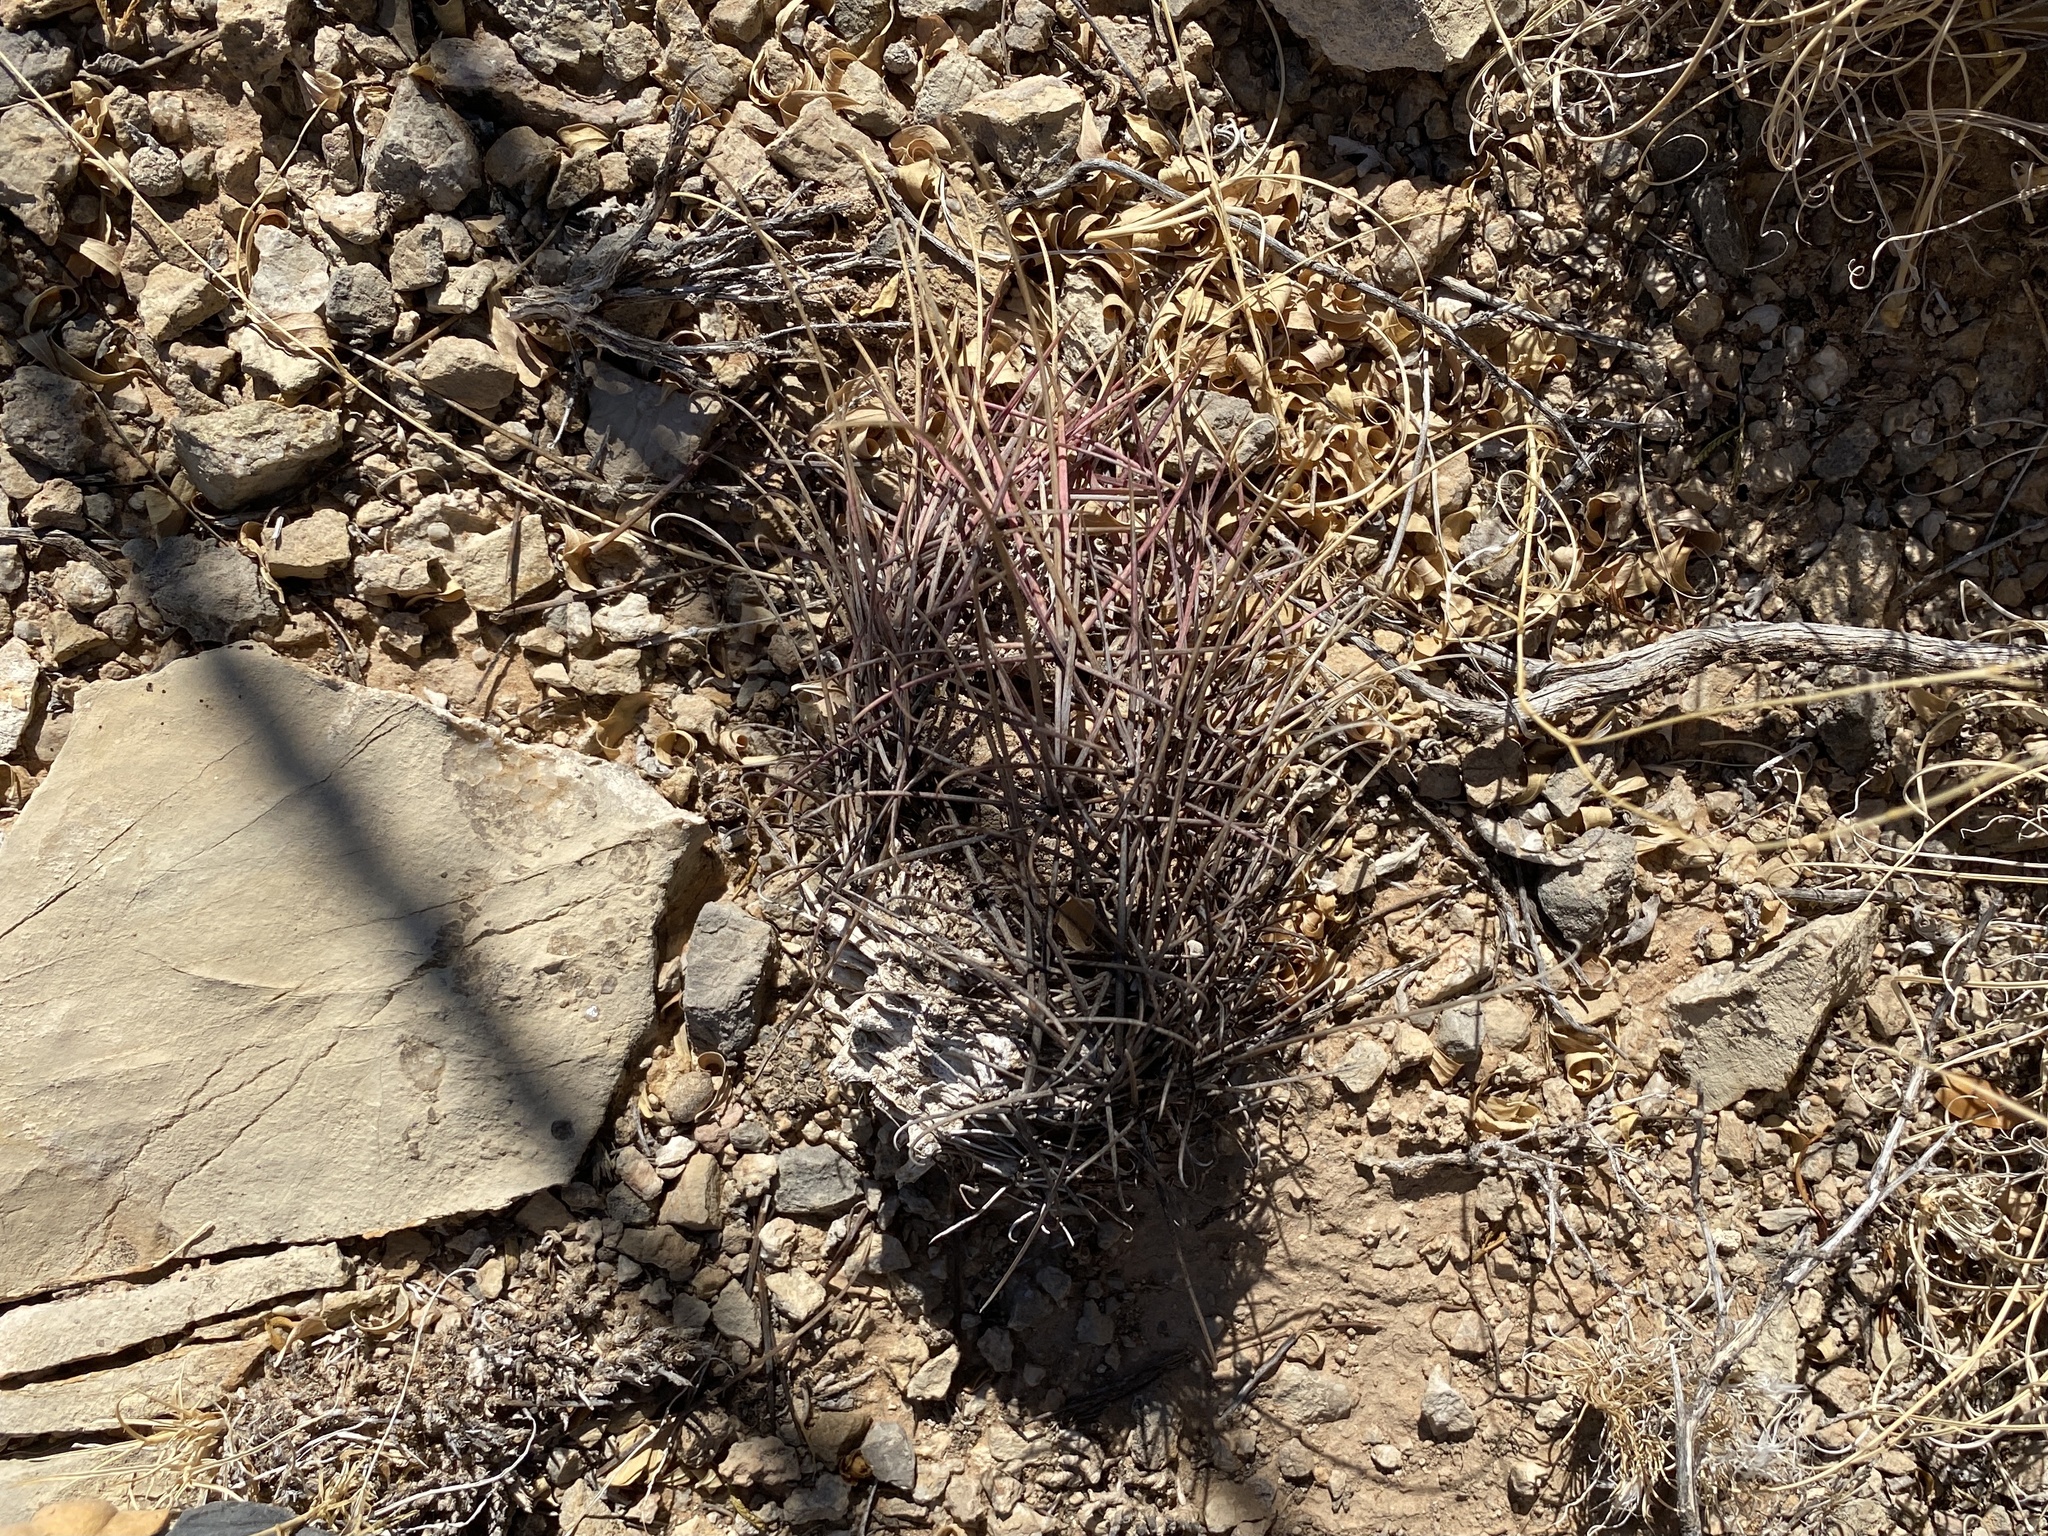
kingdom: Plantae
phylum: Tracheophyta
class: Magnoliopsida
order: Caryophyllales
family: Cactaceae
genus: Ferocactus
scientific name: Ferocactus uncinatus
